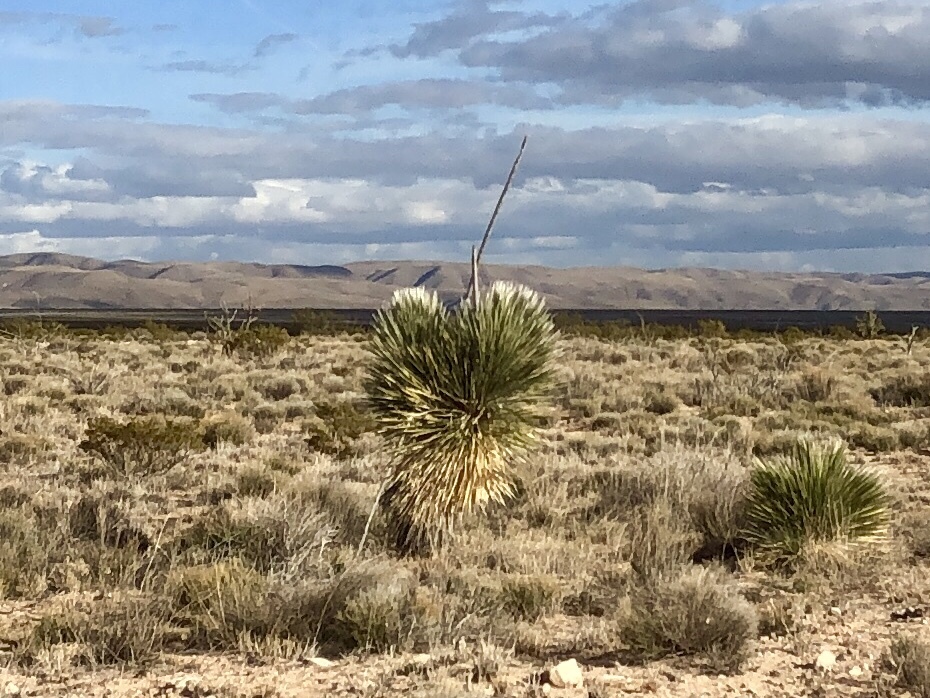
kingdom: Plantae
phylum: Tracheophyta
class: Liliopsida
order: Asparagales
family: Asparagaceae
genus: Yucca
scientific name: Yucca elata
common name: Palmella
